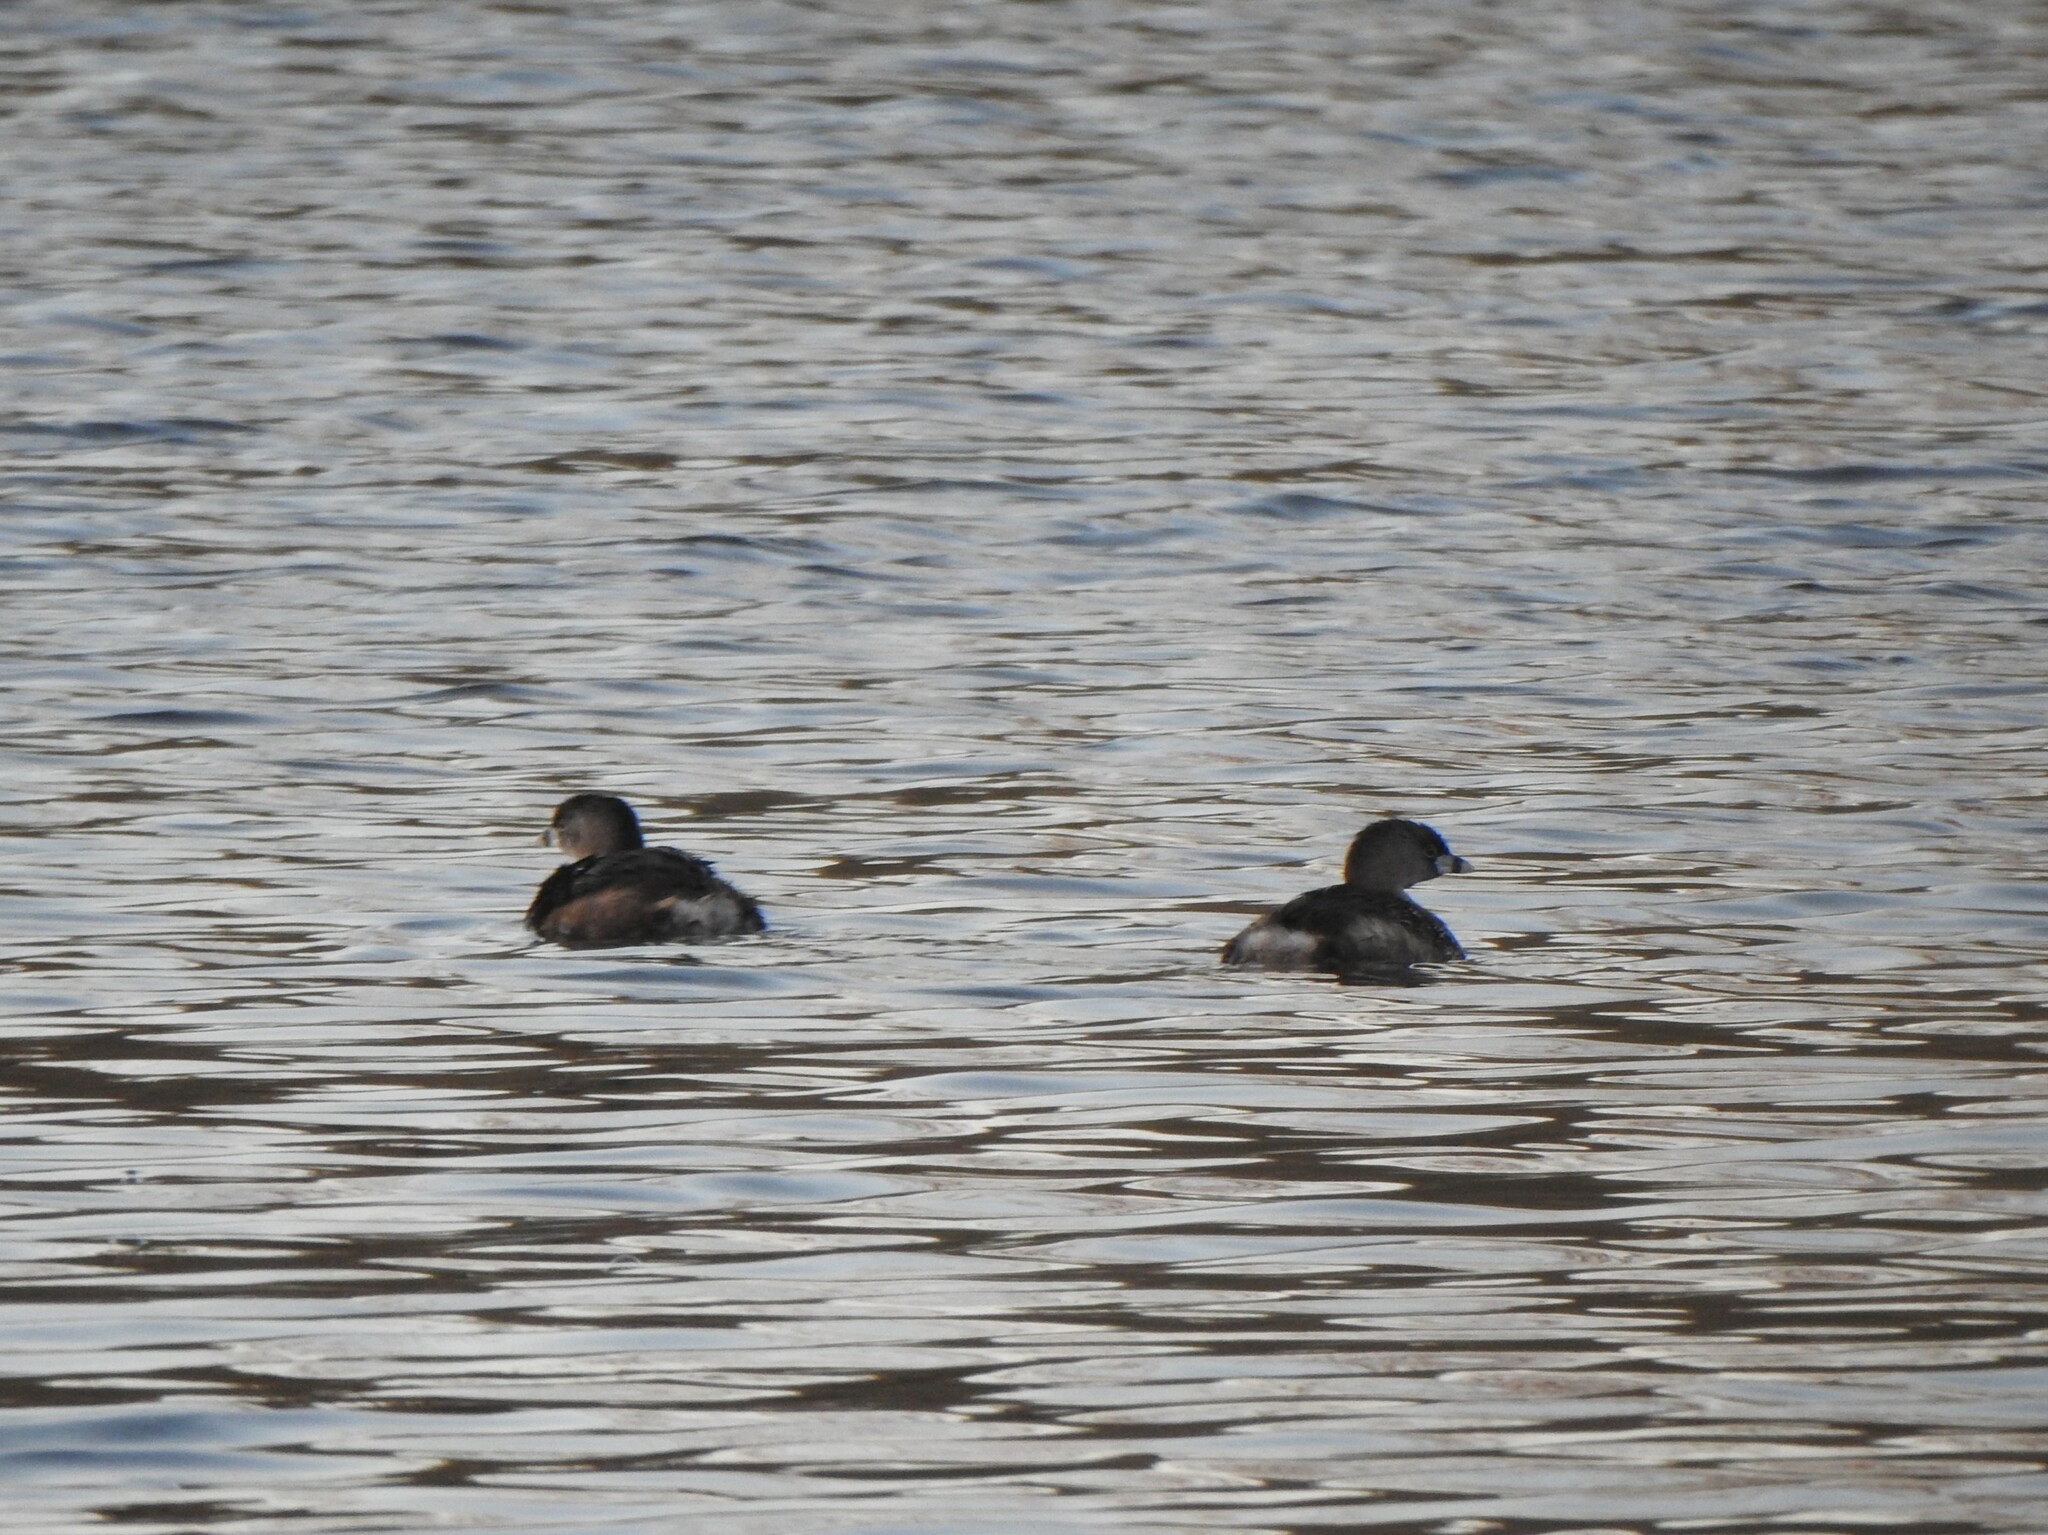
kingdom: Animalia
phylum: Chordata
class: Aves
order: Podicipediformes
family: Podicipedidae
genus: Podilymbus
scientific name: Podilymbus podiceps
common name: Pied-billed grebe
